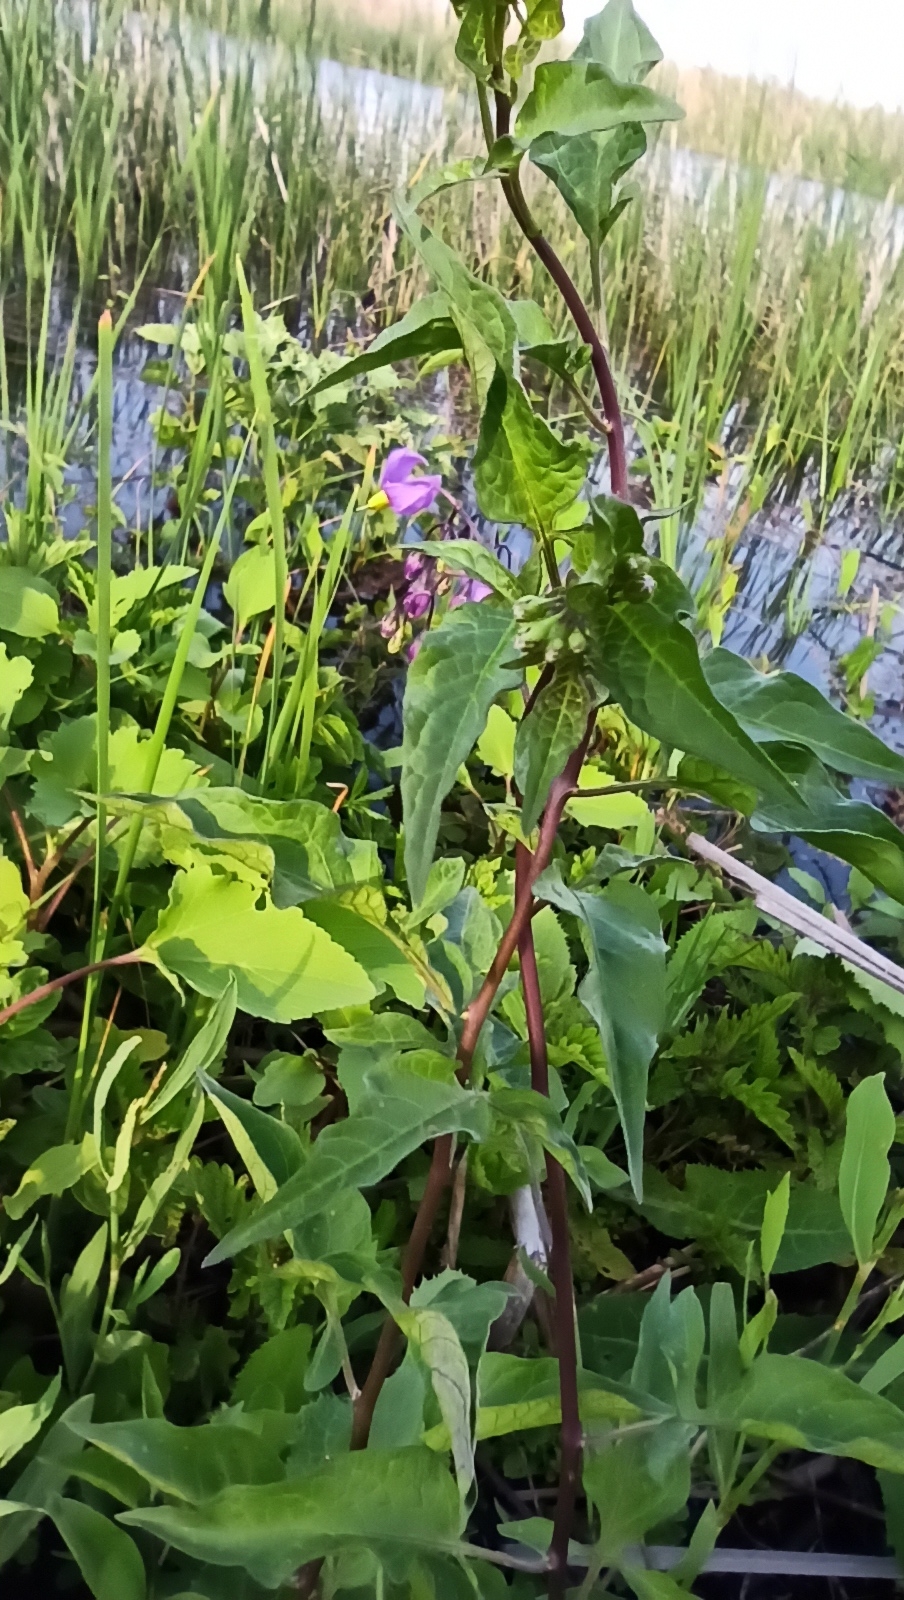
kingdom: Plantae
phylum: Tracheophyta
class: Magnoliopsida
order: Solanales
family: Solanaceae
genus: Solanum
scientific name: Solanum dulcamara
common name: Climbing nightshade
